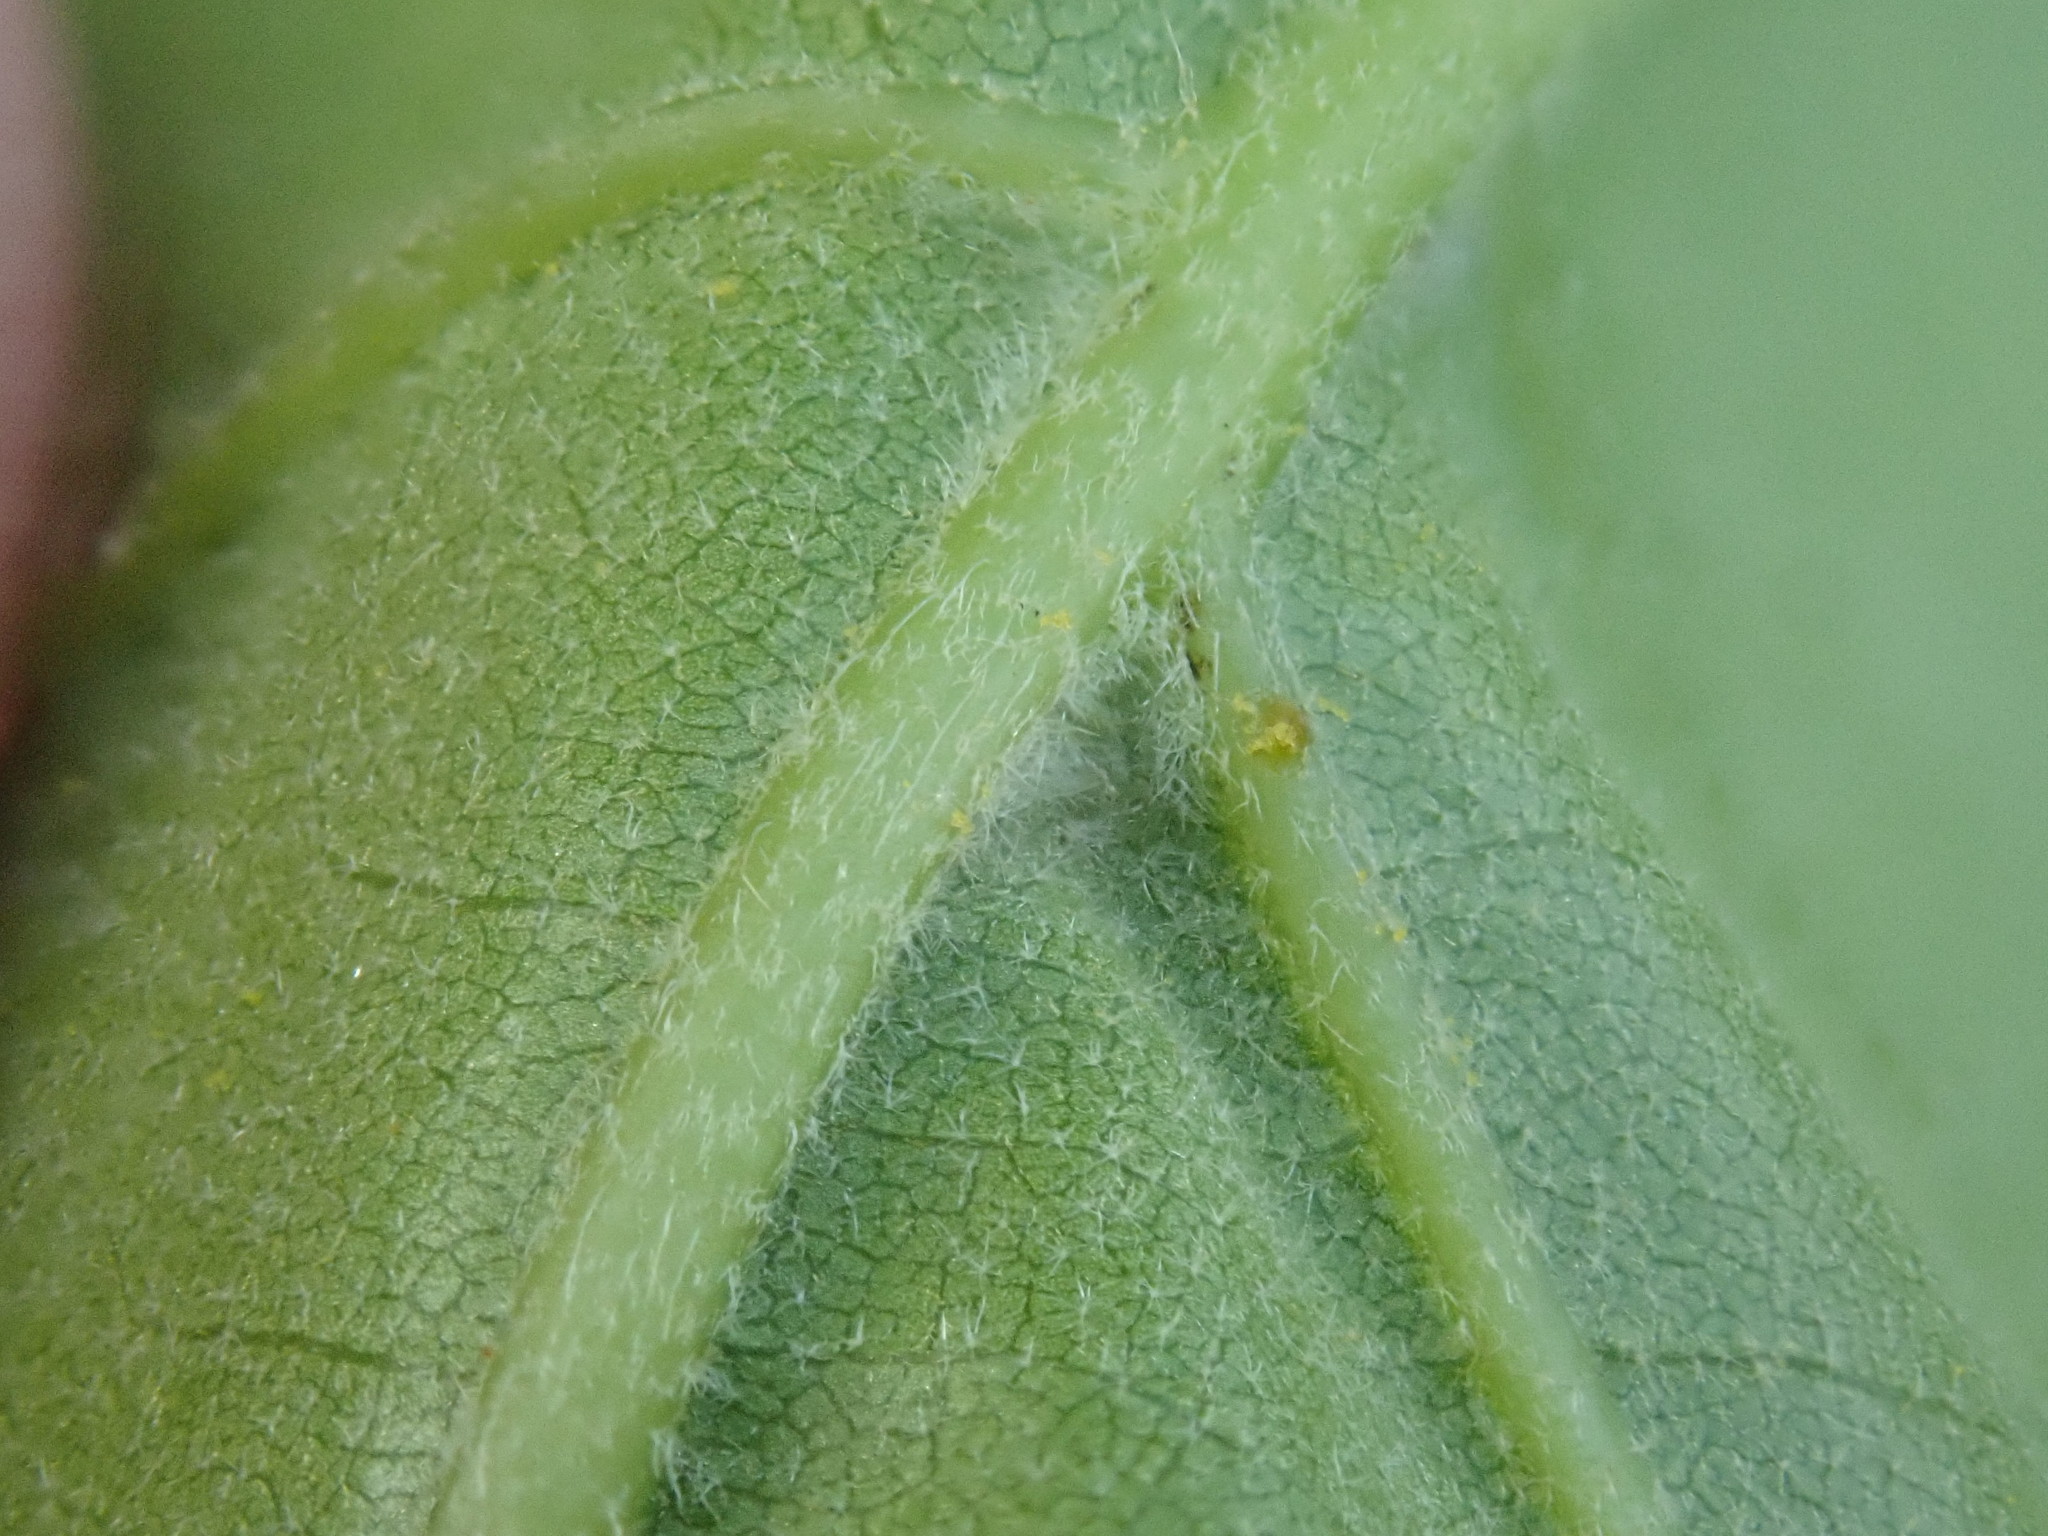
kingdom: Plantae
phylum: Tracheophyta
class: Magnoliopsida
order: Fagales
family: Fagaceae
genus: Quercus
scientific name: Quercus velutina
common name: Black oak
